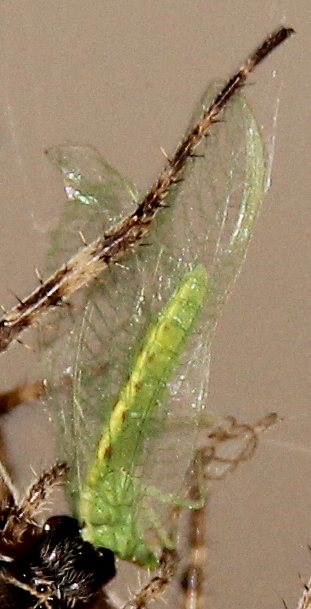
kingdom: Animalia
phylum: Arthropoda
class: Insecta
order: Neuroptera
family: Chrysopidae
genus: Chrysoperla
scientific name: Chrysoperla
